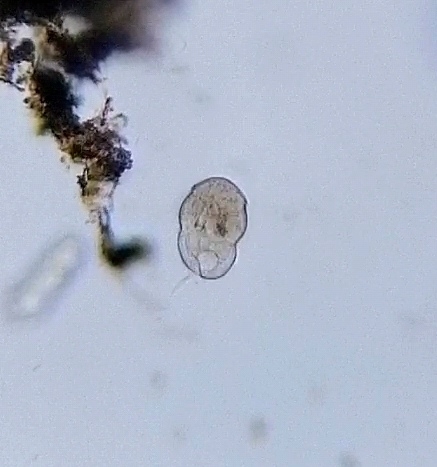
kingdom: Chromista
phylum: Ciliophora
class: Oligohymenophorea
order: Hymenostomatida
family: Urocentridae
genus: Urocentrum
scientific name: Urocentrum turbo
